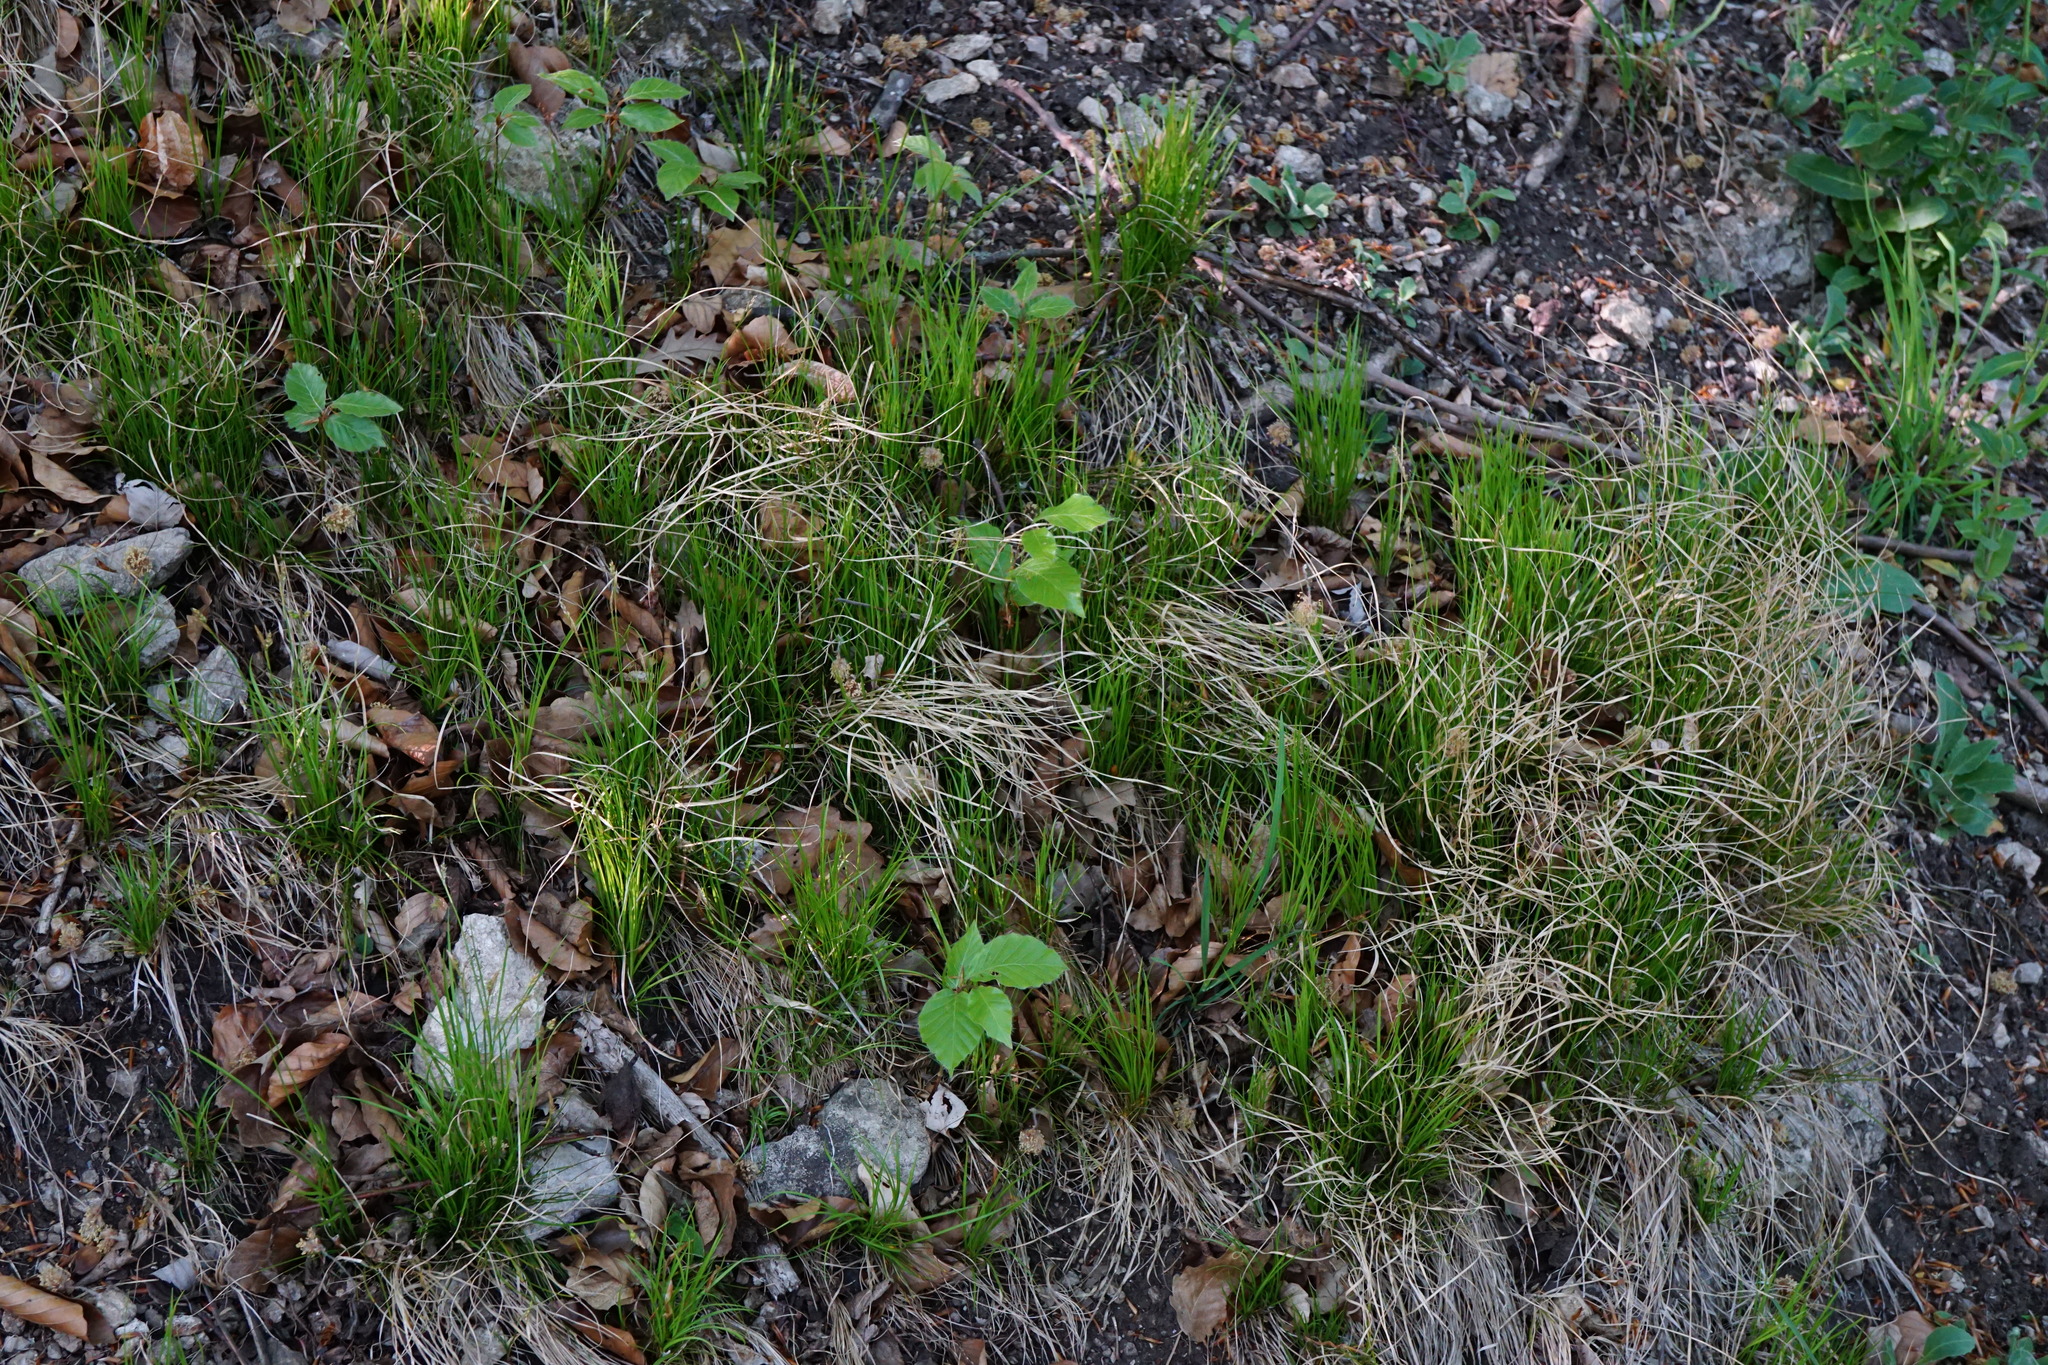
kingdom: Plantae
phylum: Tracheophyta
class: Liliopsida
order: Poales
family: Cyperaceae
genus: Carex
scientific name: Carex alba
